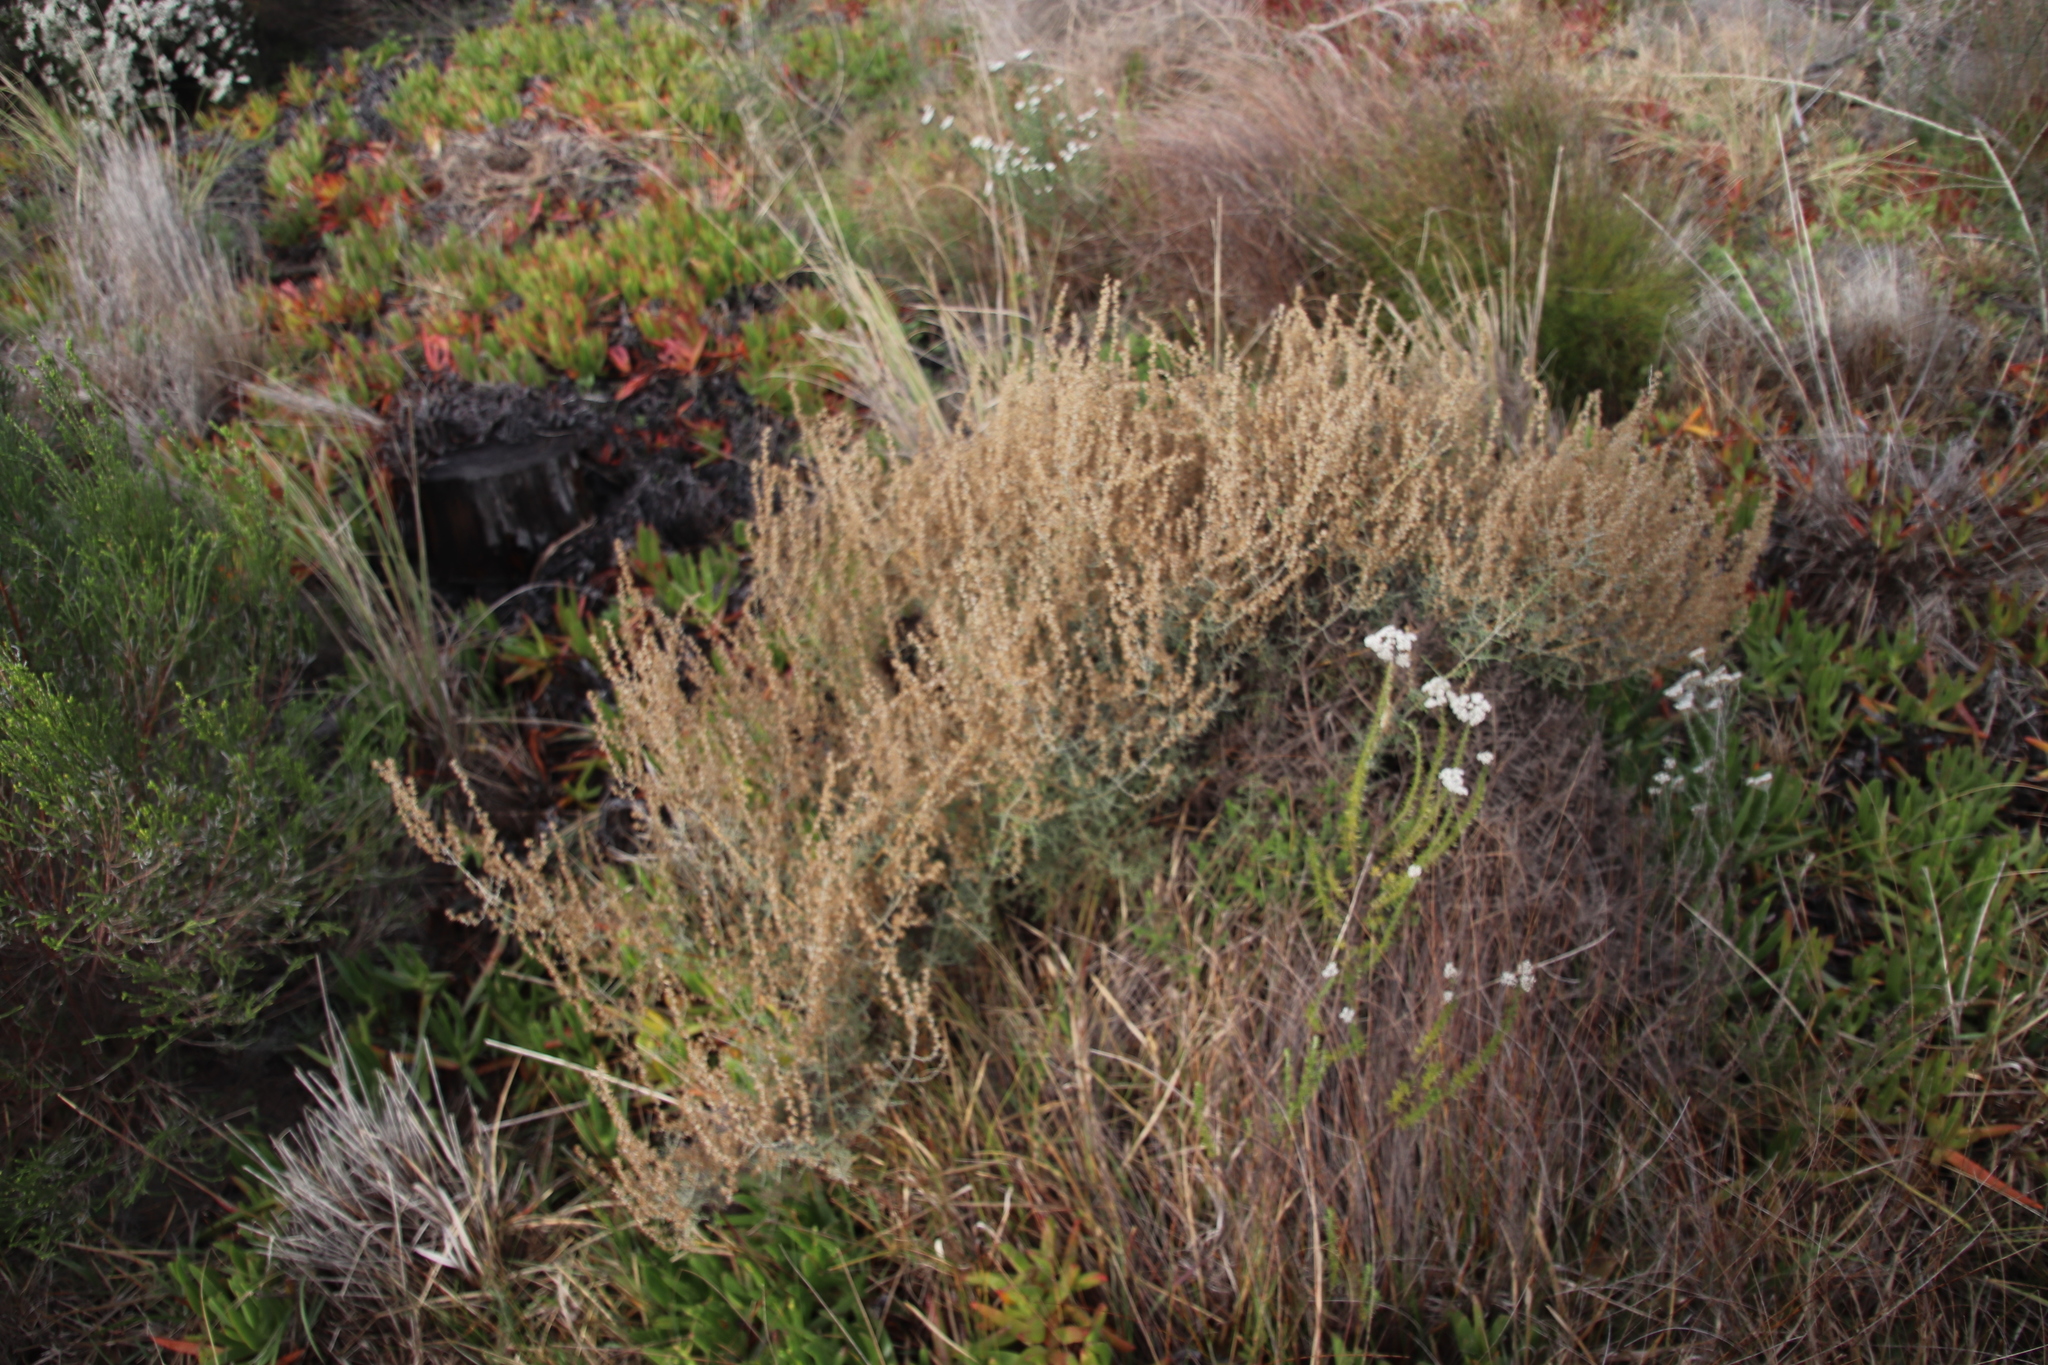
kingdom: Plantae
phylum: Tracheophyta
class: Magnoliopsida
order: Asterales
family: Asteraceae
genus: Seriphium
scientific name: Seriphium plumosum
